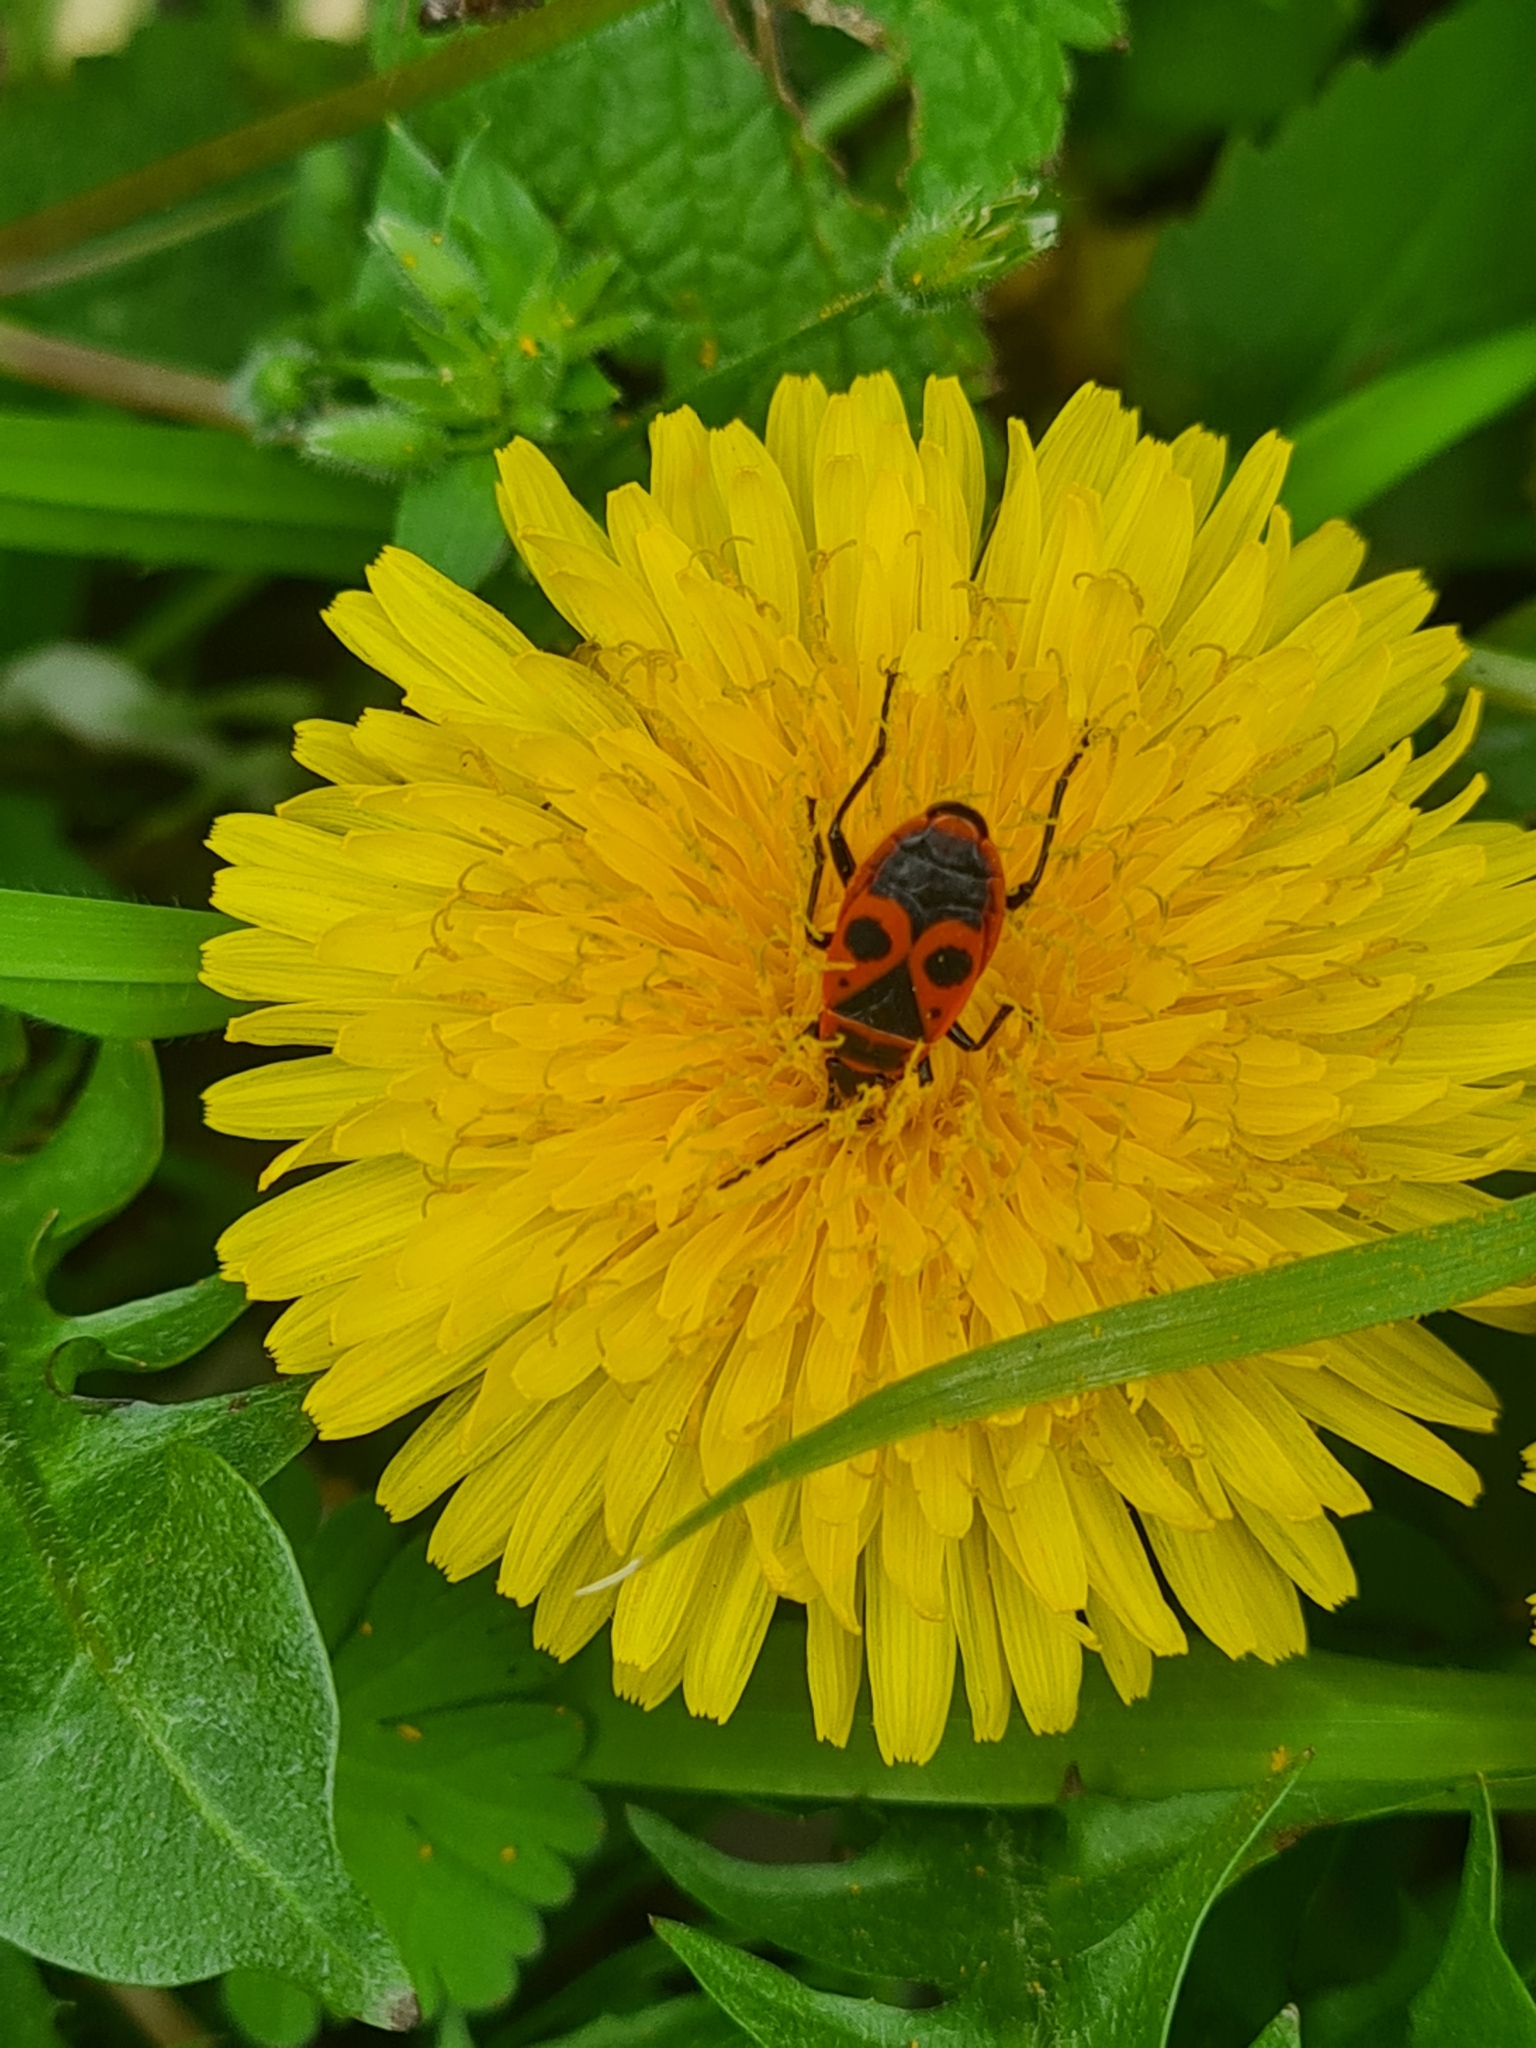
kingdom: Animalia
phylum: Arthropoda
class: Insecta
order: Hemiptera
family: Pyrrhocoridae
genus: Pyrrhocoris
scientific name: Pyrrhocoris apterus
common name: Firebug
